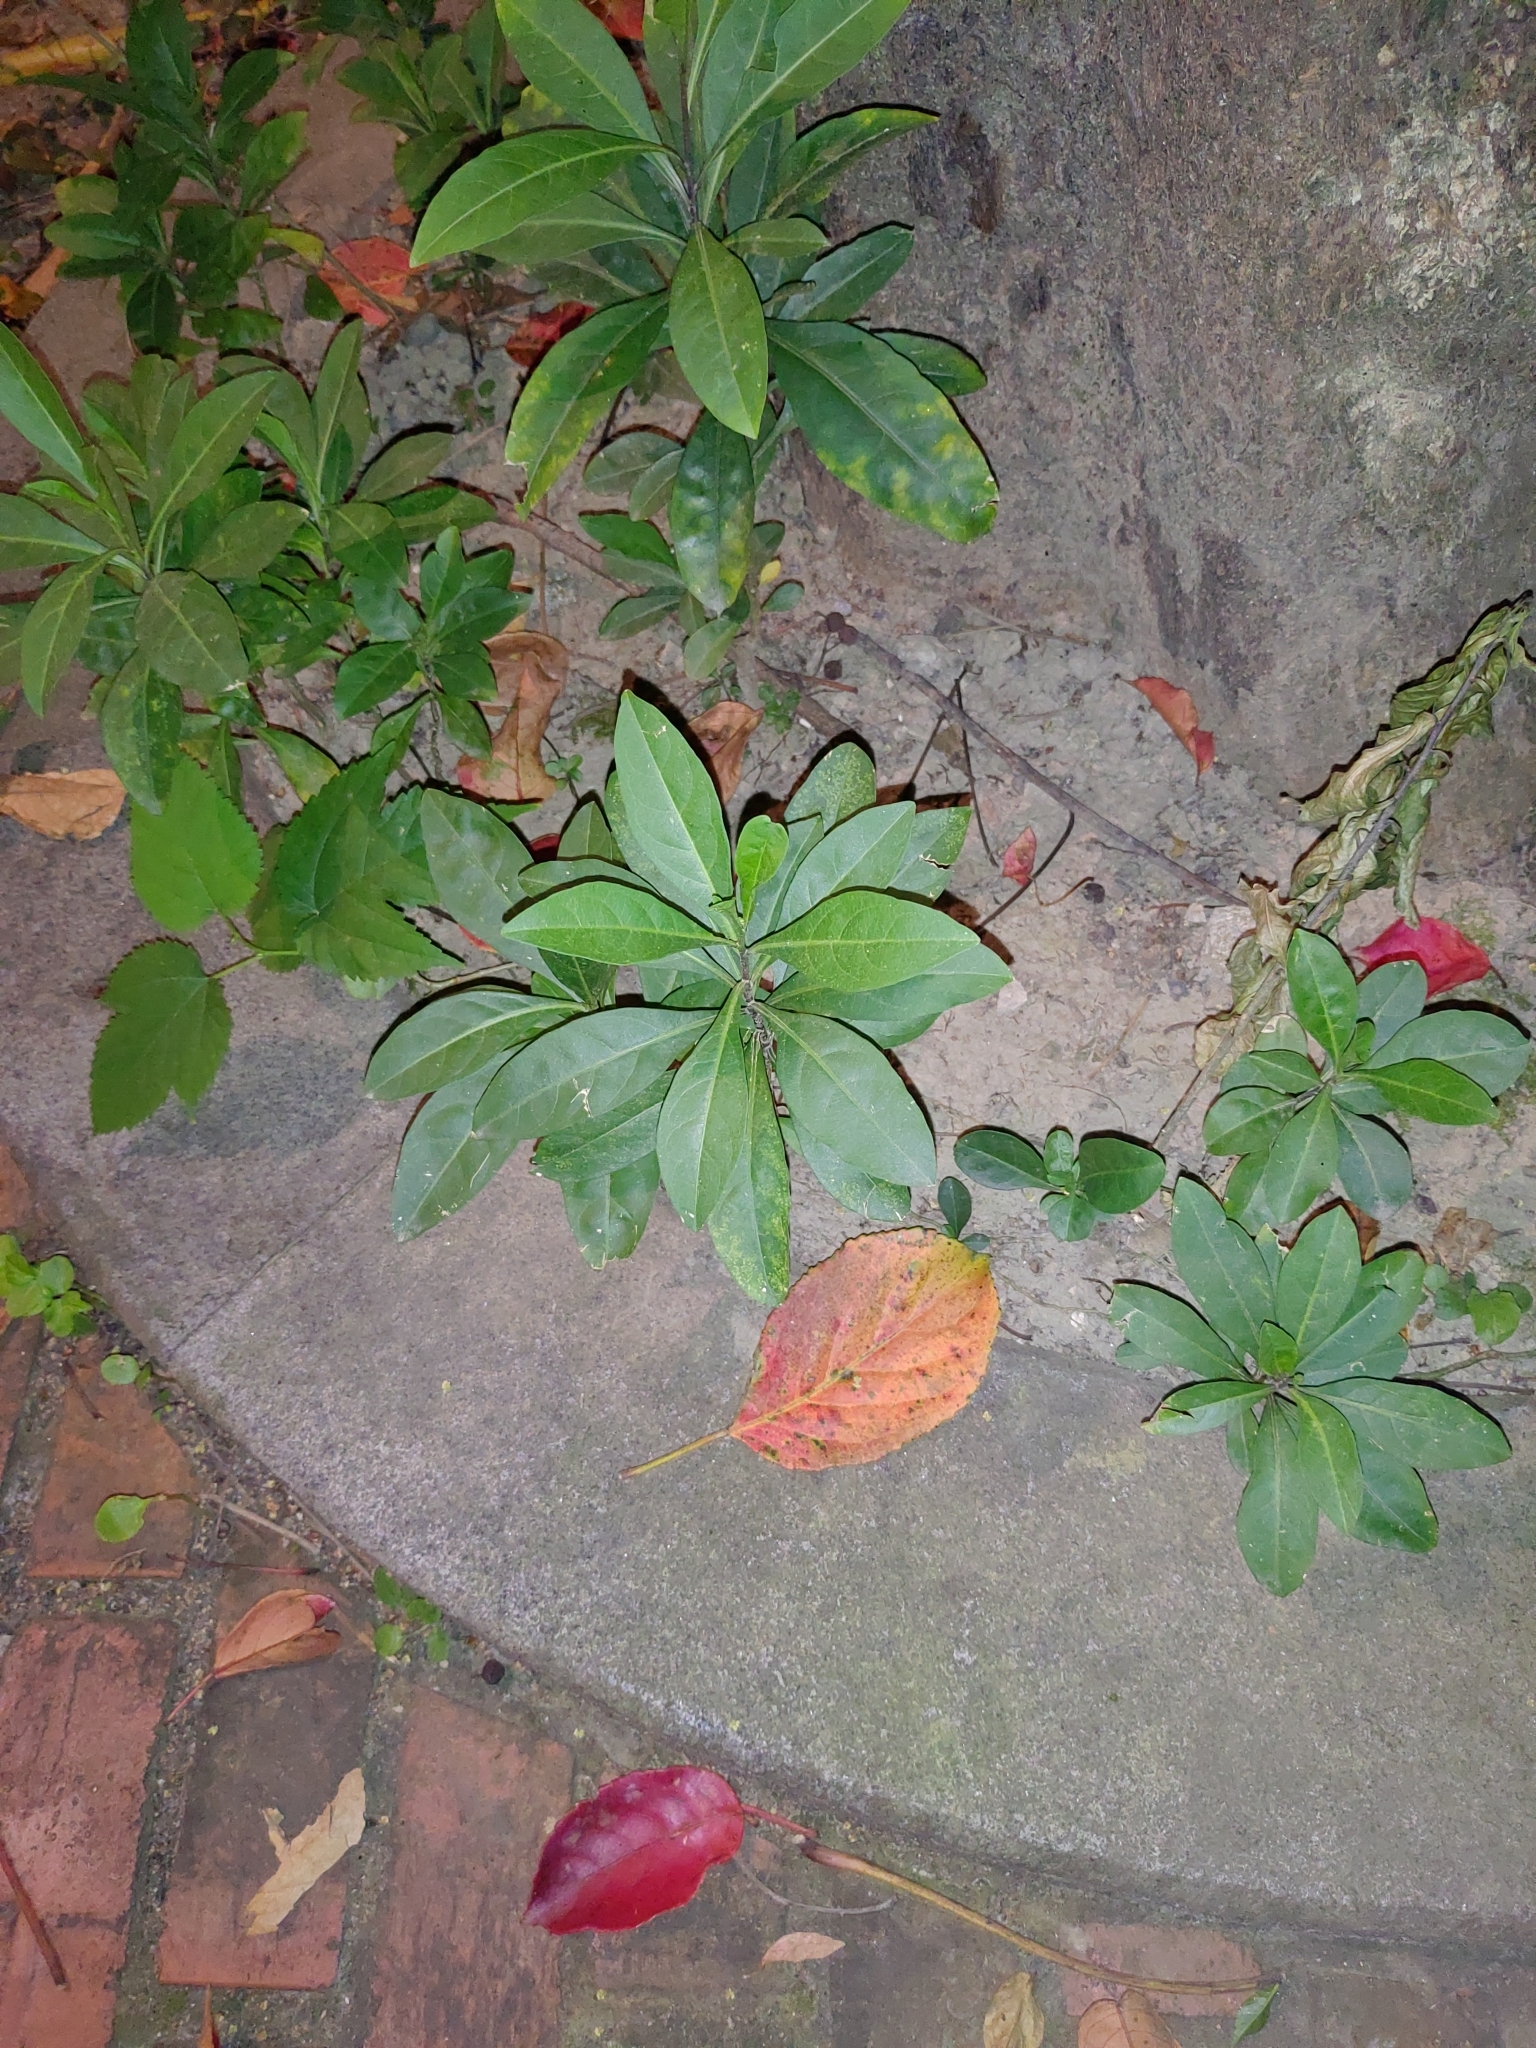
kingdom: Plantae
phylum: Tracheophyta
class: Magnoliopsida
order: Solanales
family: Solanaceae
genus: Solanum
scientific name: Solanum diphyllum
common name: Twoleaf nightshade
